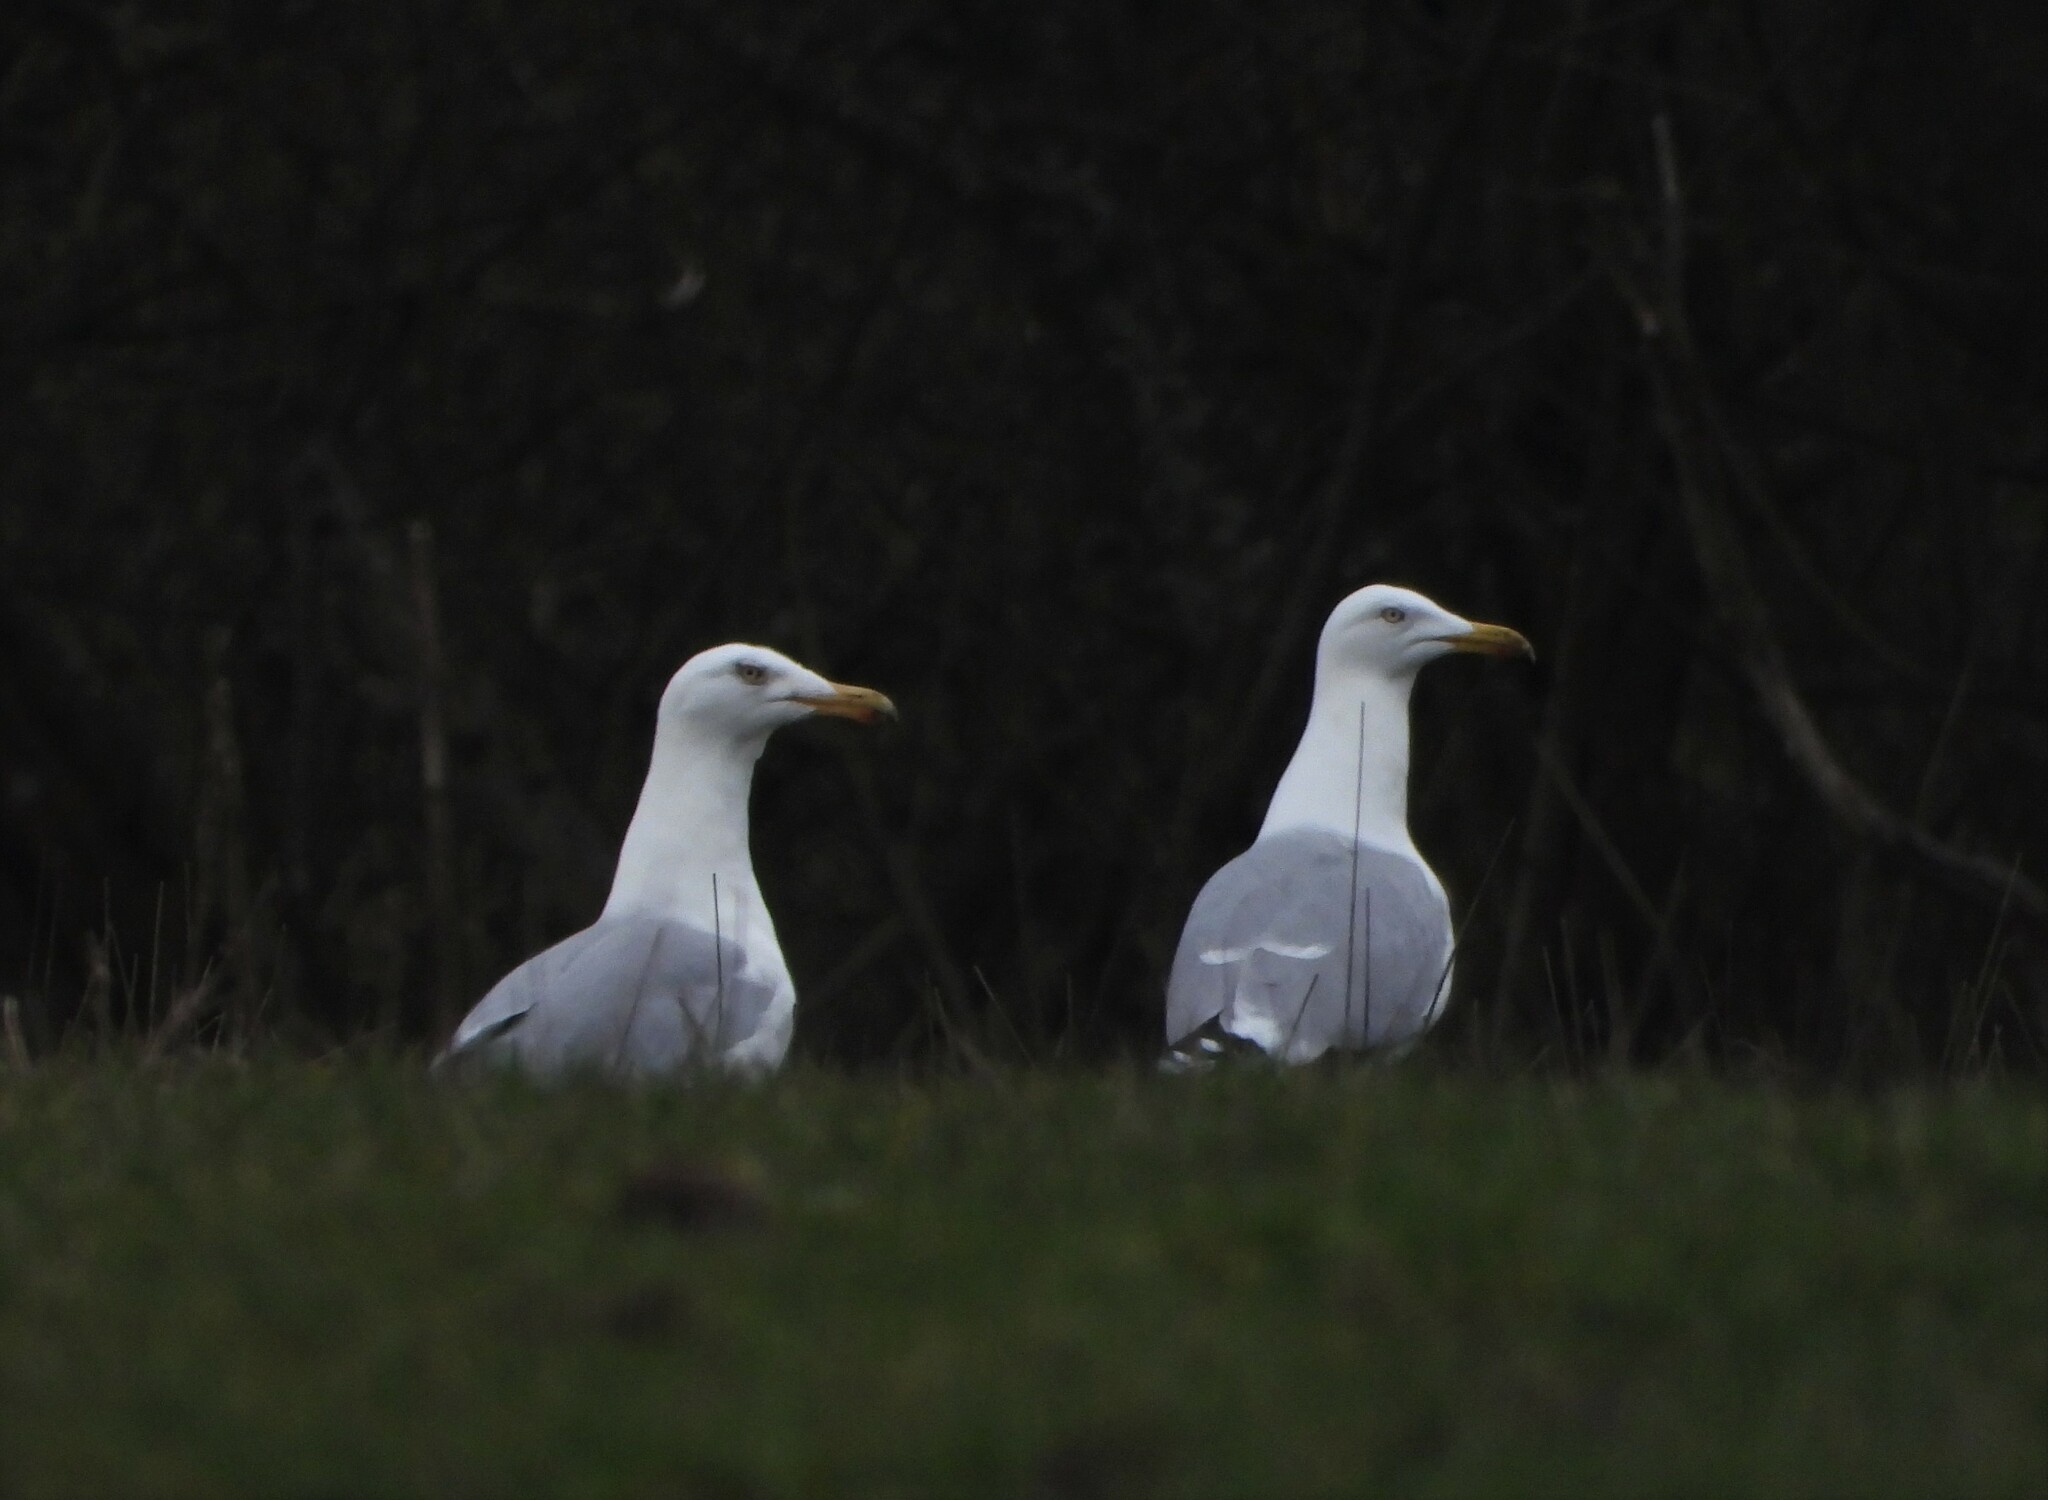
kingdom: Animalia
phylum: Chordata
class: Aves
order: Charadriiformes
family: Laridae
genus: Larus
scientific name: Larus argentatus
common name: Herring gull
